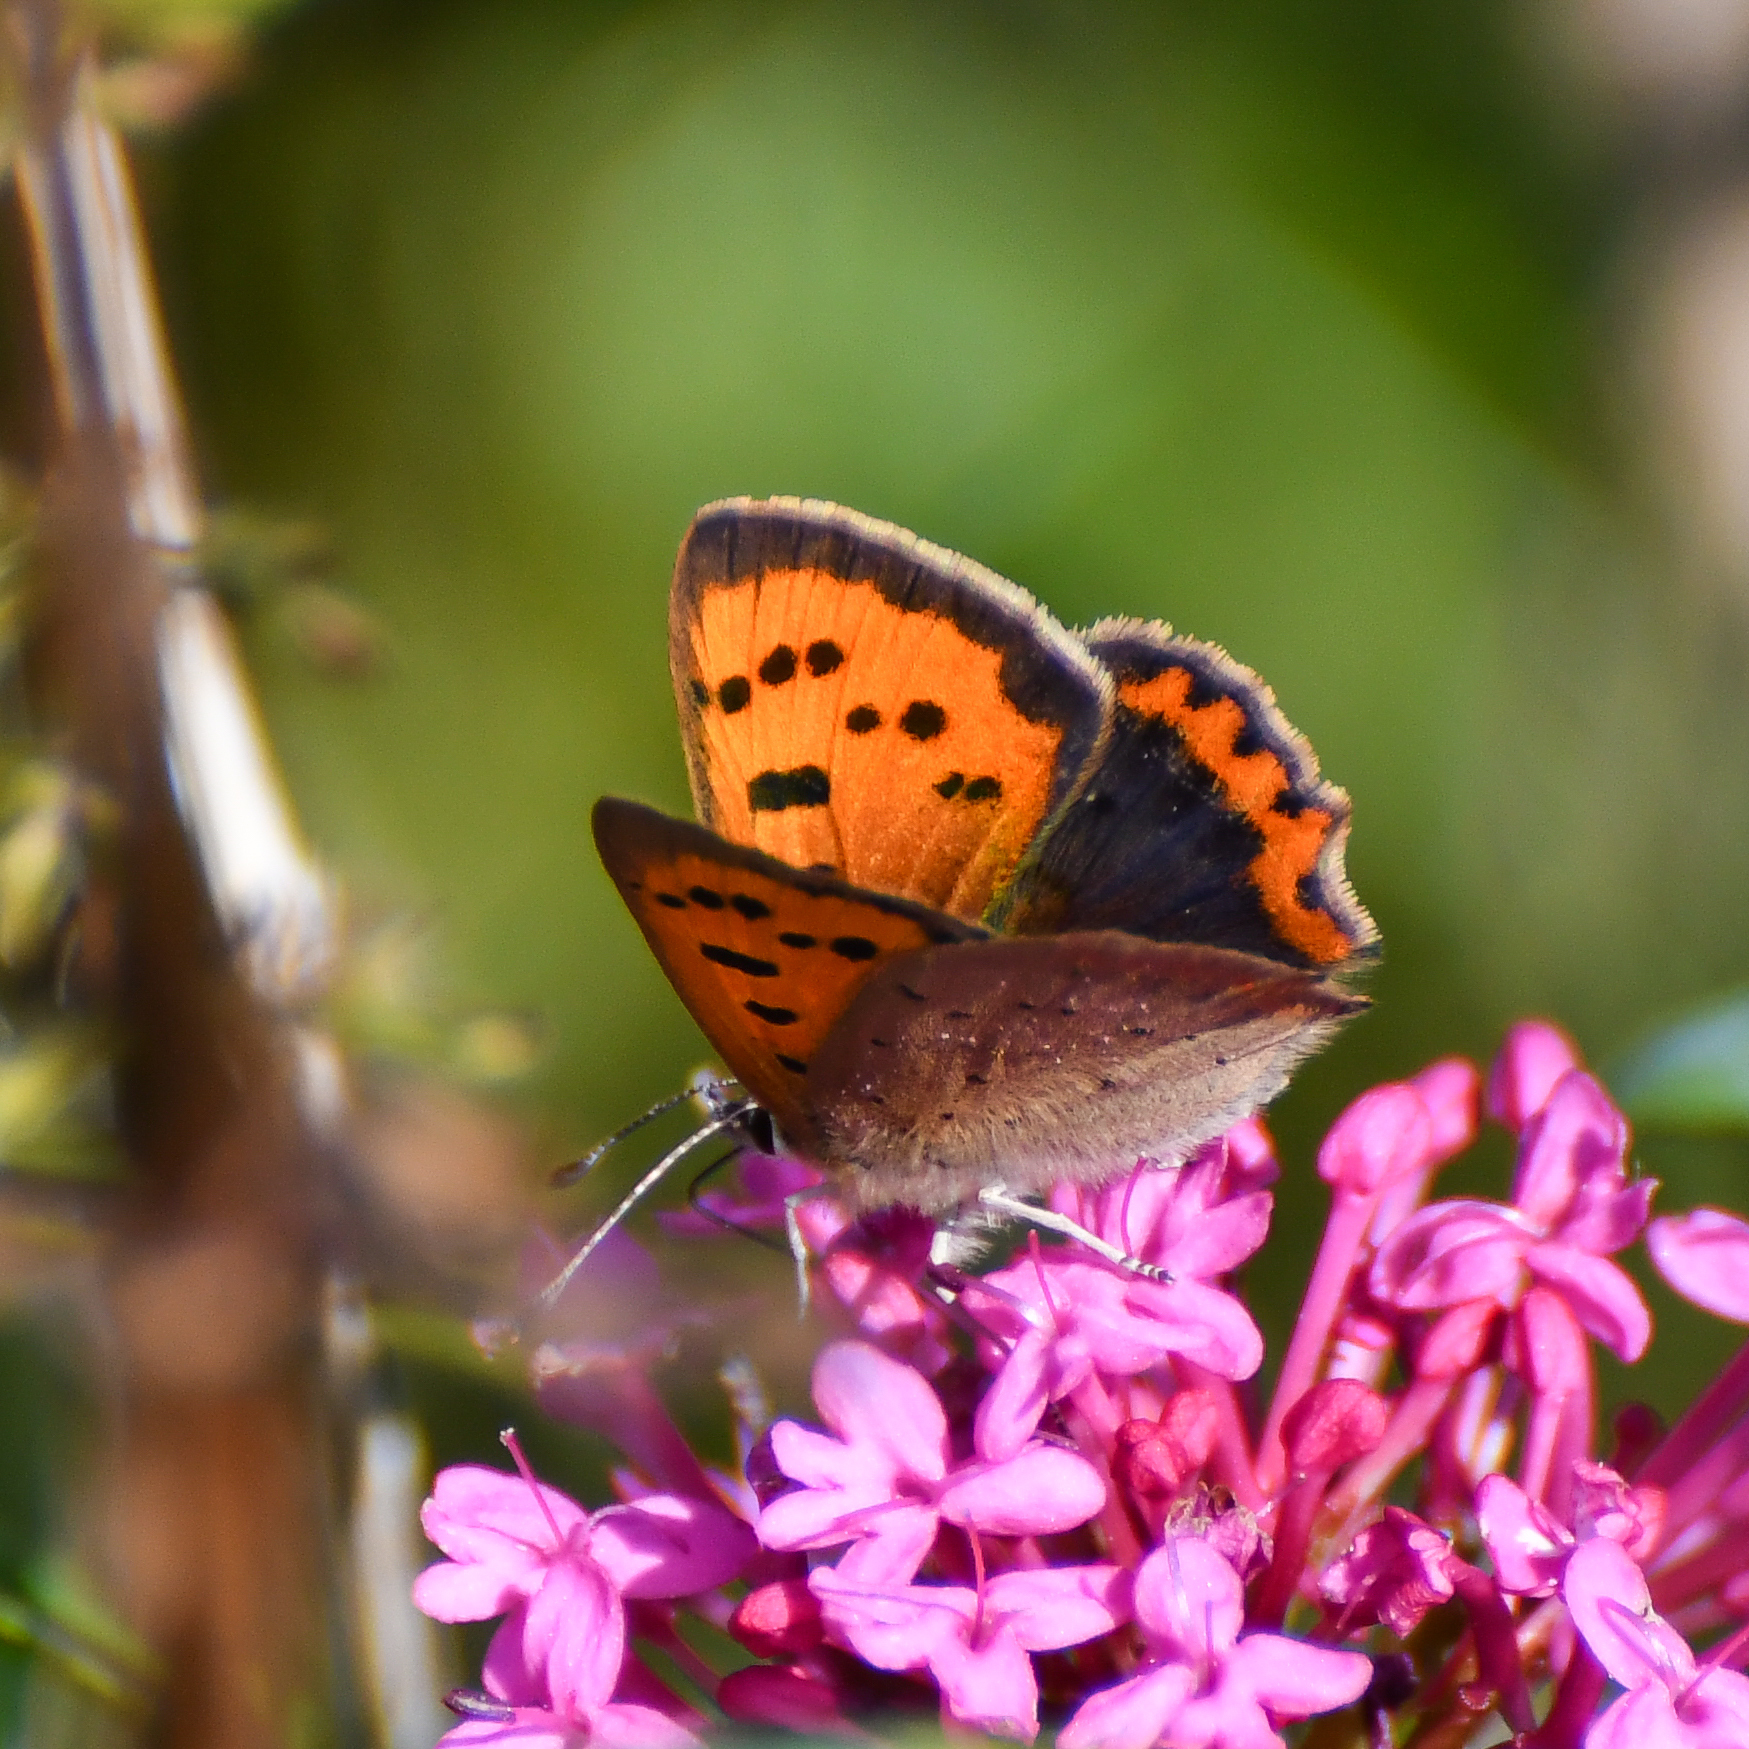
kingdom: Animalia
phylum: Arthropoda
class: Insecta
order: Lepidoptera
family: Lycaenidae
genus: Lycaena
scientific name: Lycaena phlaeas
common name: Small copper
